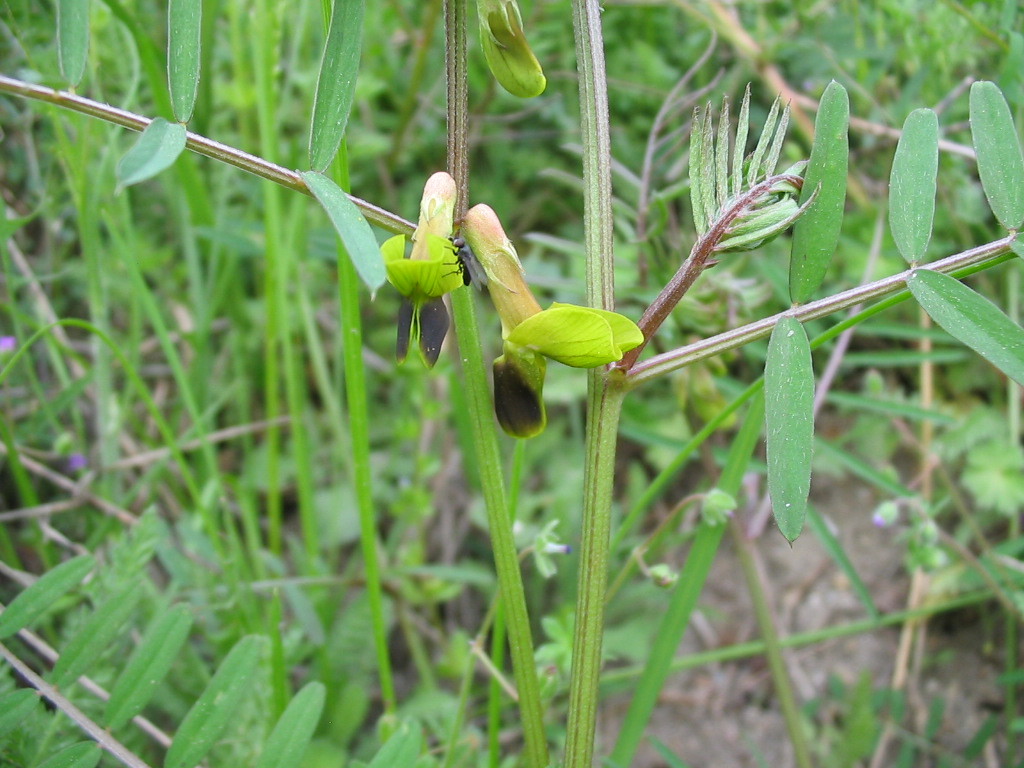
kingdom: Plantae
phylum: Tracheophyta
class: Magnoliopsida
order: Fabales
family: Fabaceae
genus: Vicia
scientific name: Vicia melanops
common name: Black-eyed vetch
